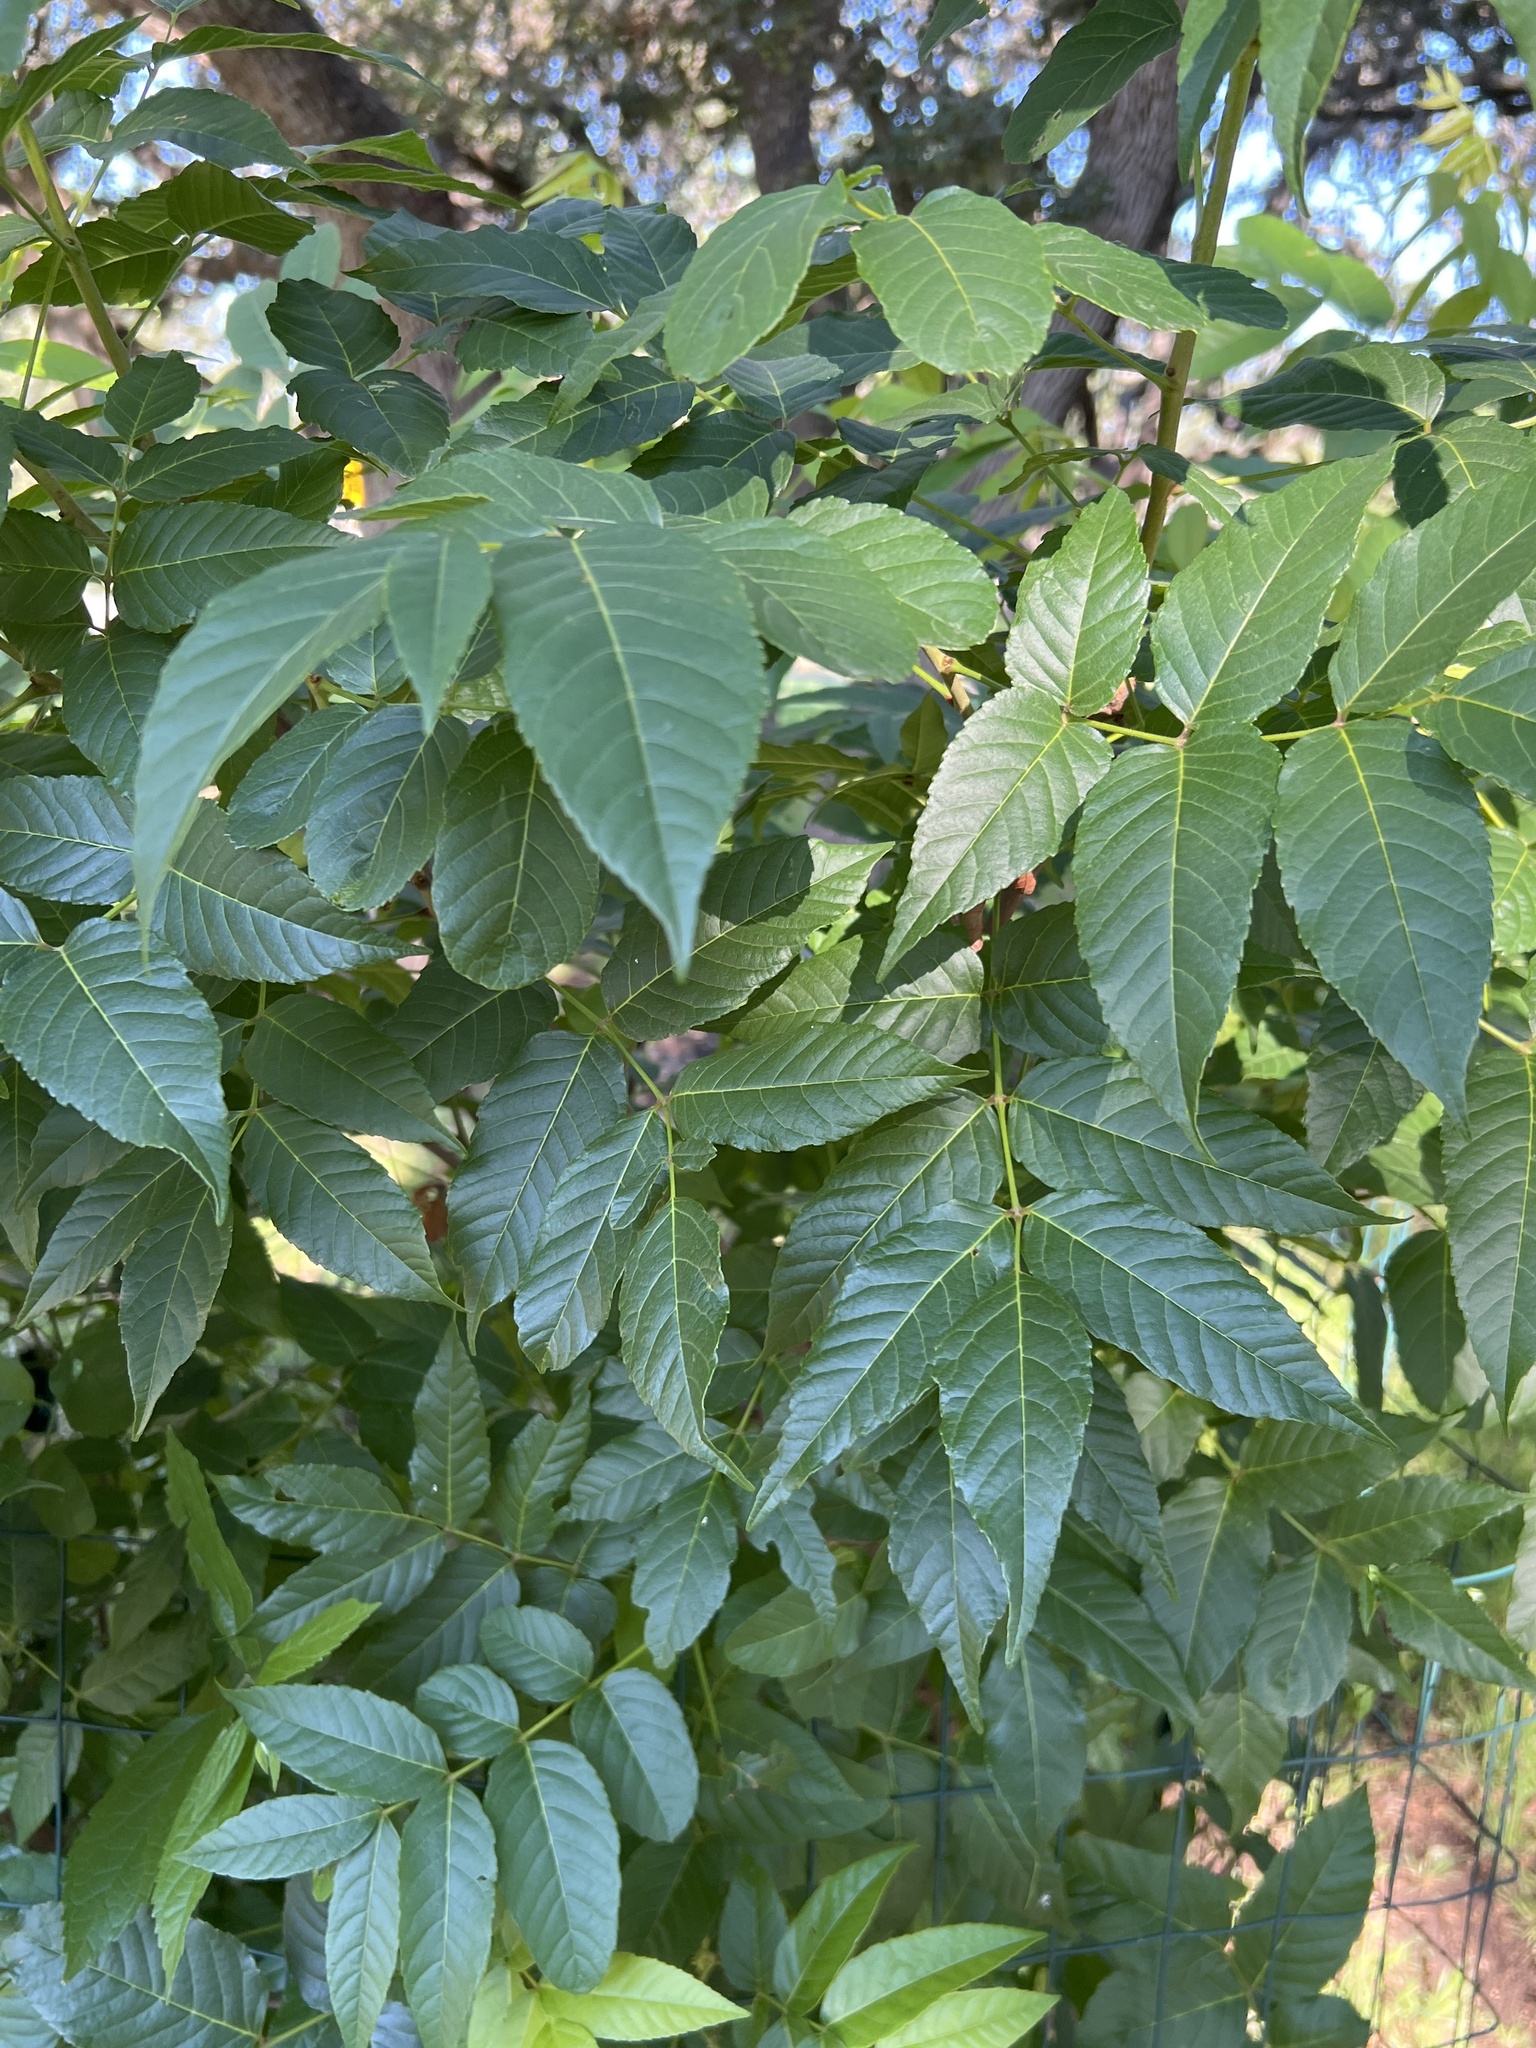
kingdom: Plantae
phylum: Tracheophyta
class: Magnoliopsida
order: Sapindales
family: Sapindaceae
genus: Ungnadia
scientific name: Ungnadia speciosa
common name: Texas-buckeye
